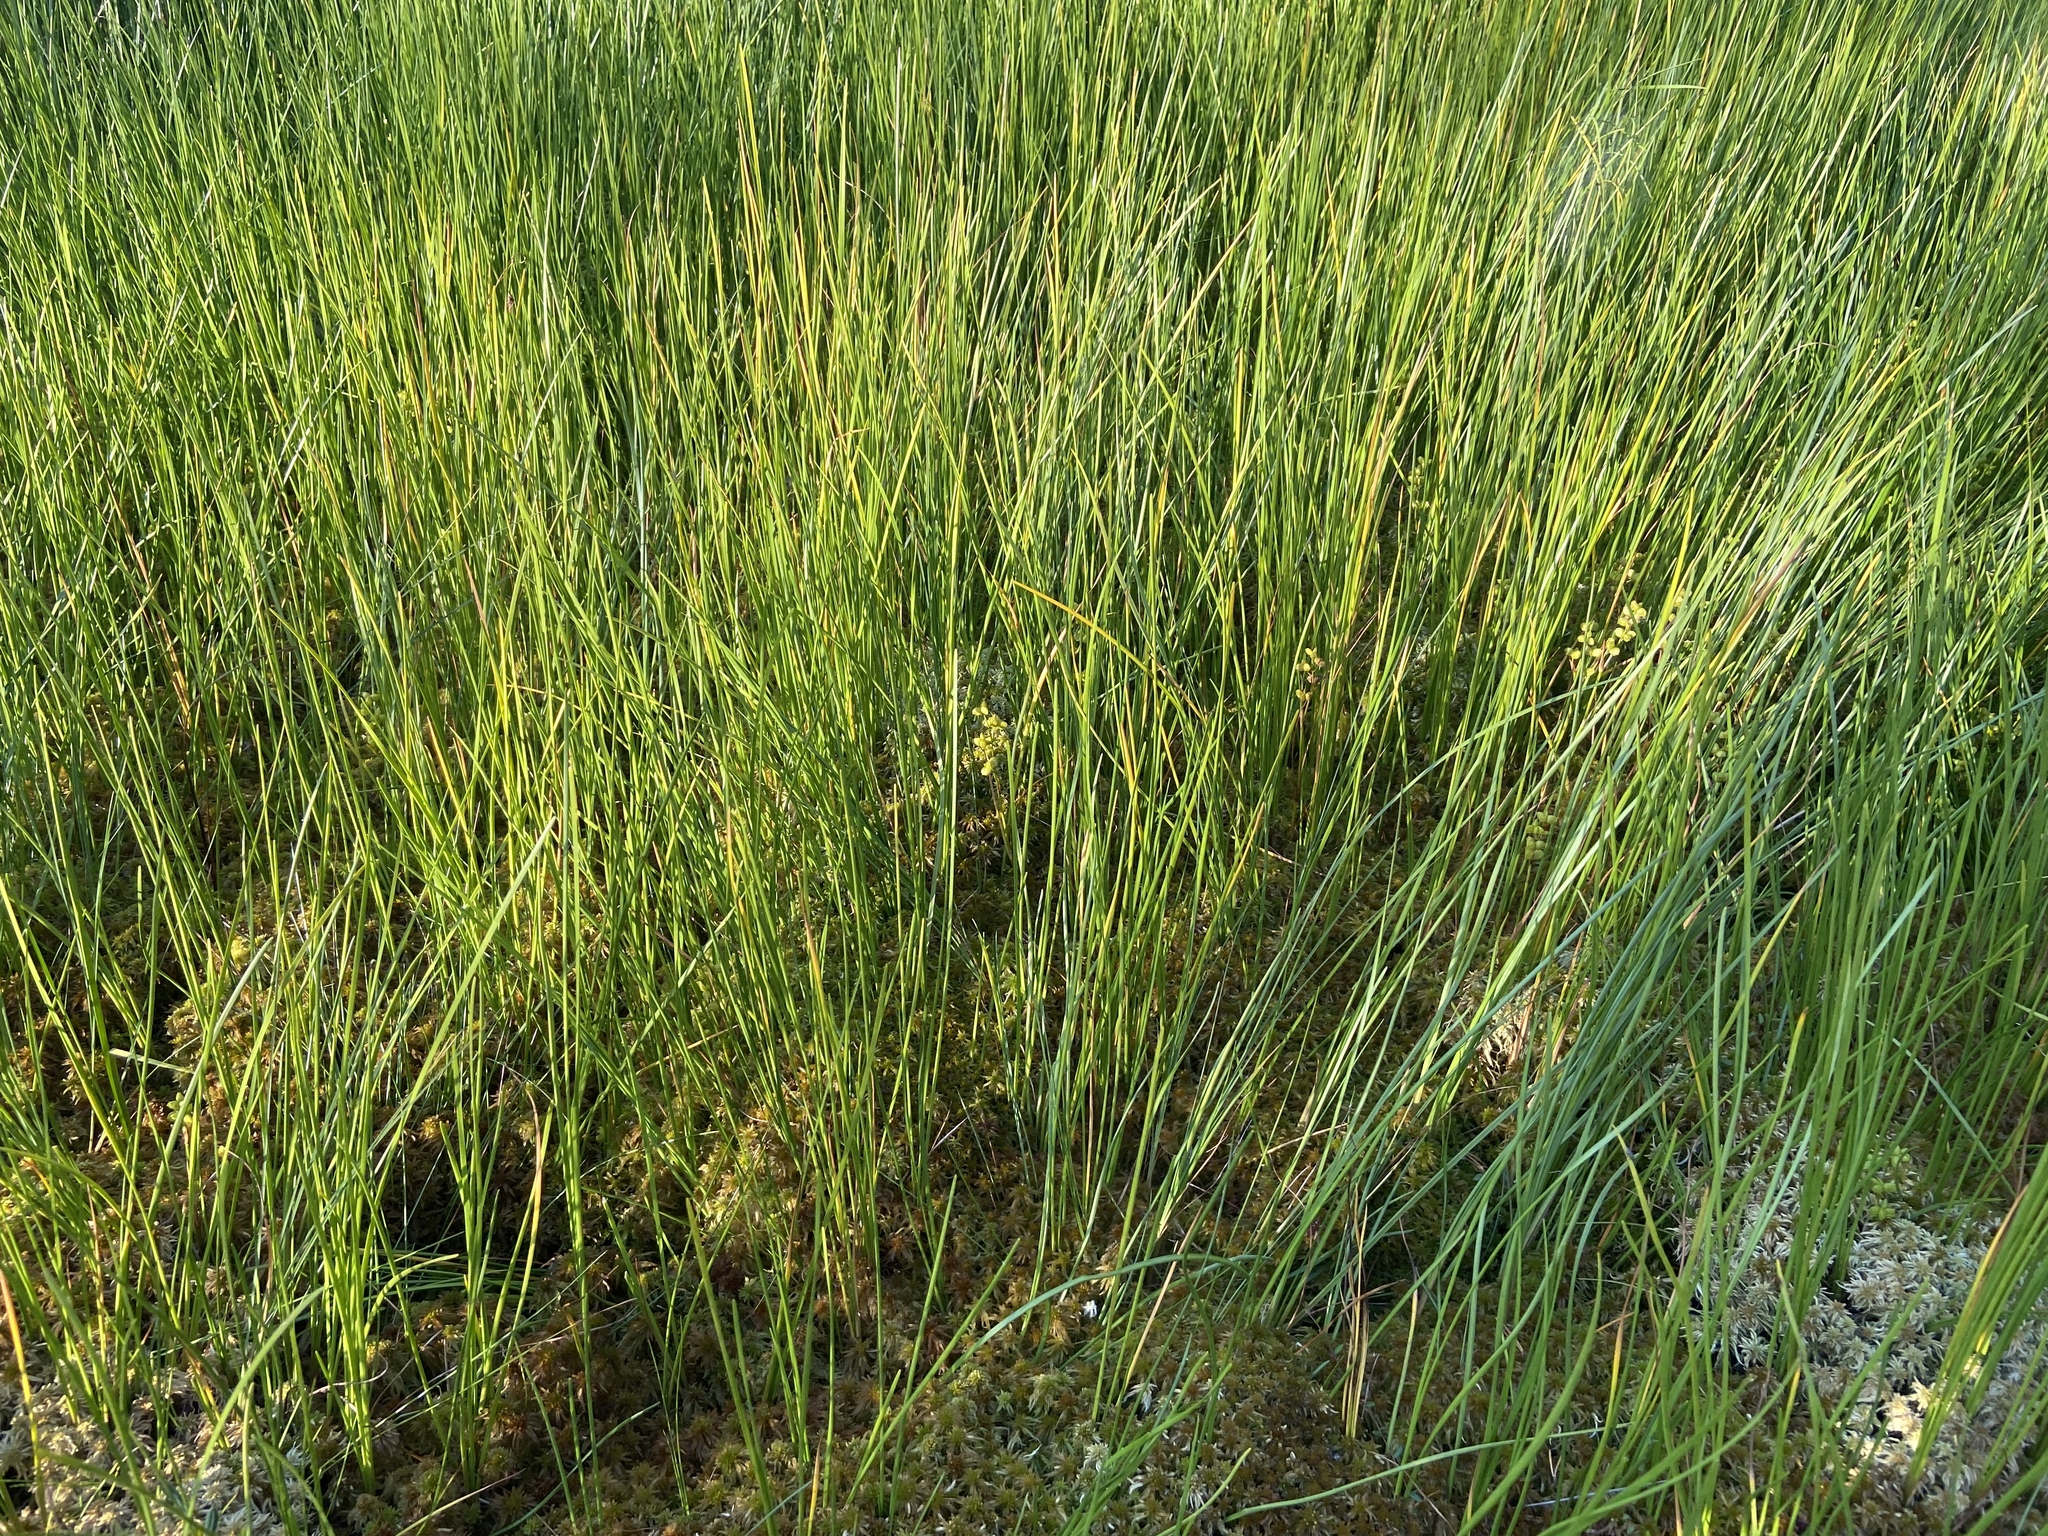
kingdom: Plantae
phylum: Tracheophyta
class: Liliopsida
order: Alismatales
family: Scheuchzeriaceae
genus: Scheuchzeria
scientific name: Scheuchzeria palustris
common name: Rannoch-rush
